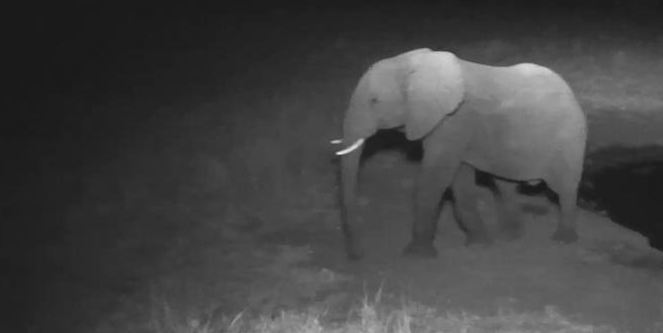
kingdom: Animalia
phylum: Chordata
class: Mammalia
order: Proboscidea
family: Elephantidae
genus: Loxodonta
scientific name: Loxodonta africana
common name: African elephant
